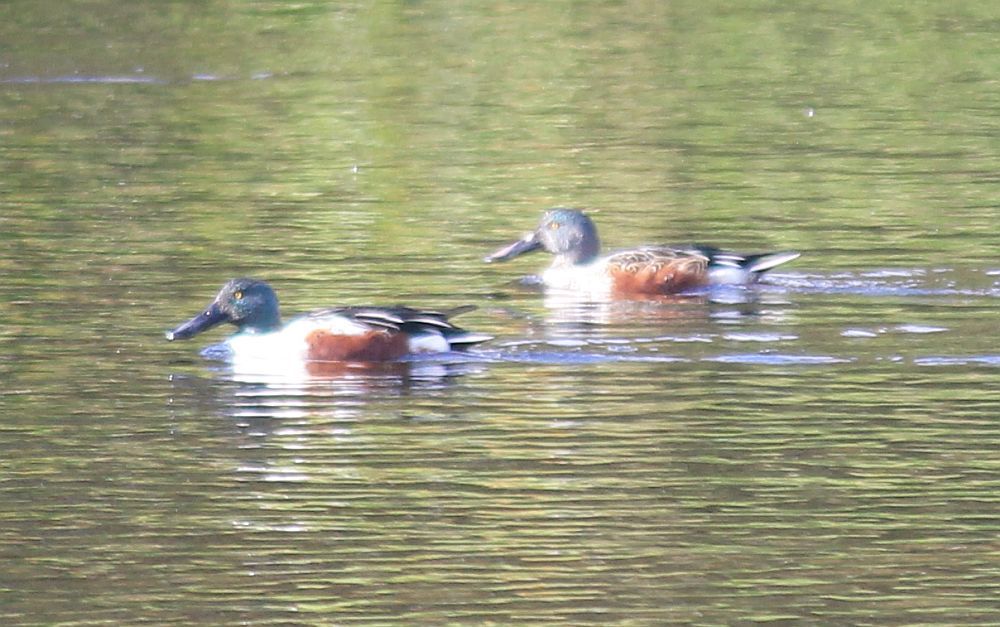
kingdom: Animalia
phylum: Chordata
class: Aves
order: Anseriformes
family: Anatidae
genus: Spatula
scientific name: Spatula clypeata
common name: Northern shoveler
